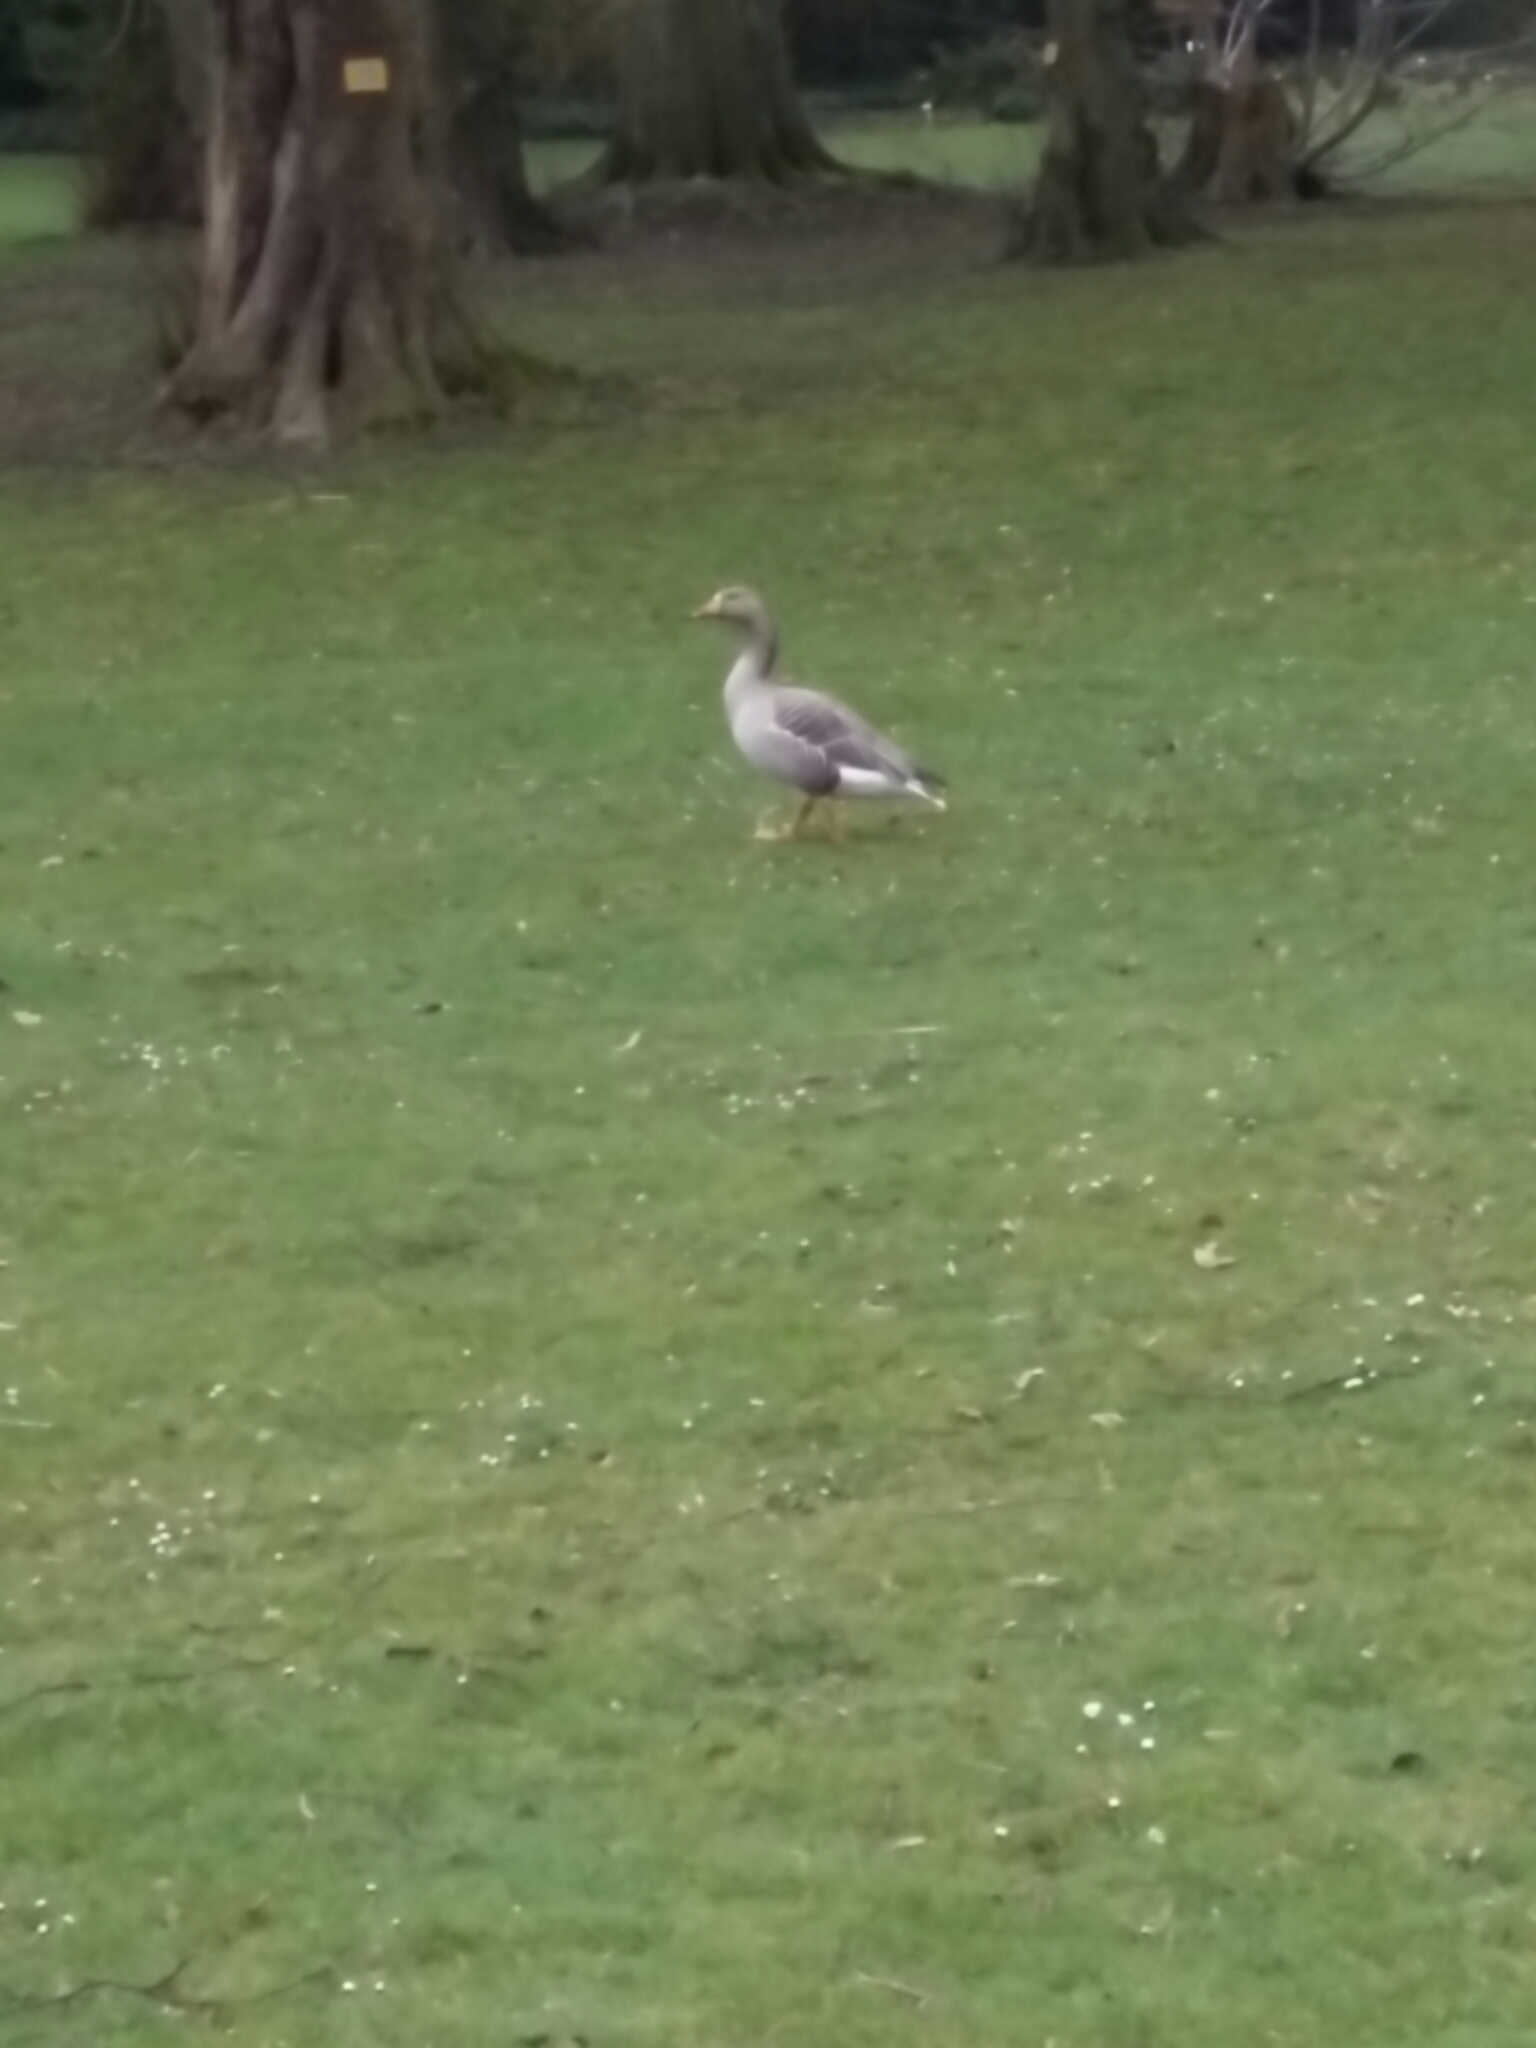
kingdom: Animalia
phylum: Chordata
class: Aves
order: Anseriformes
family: Anatidae
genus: Anser
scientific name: Anser anser
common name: Greylag goose
